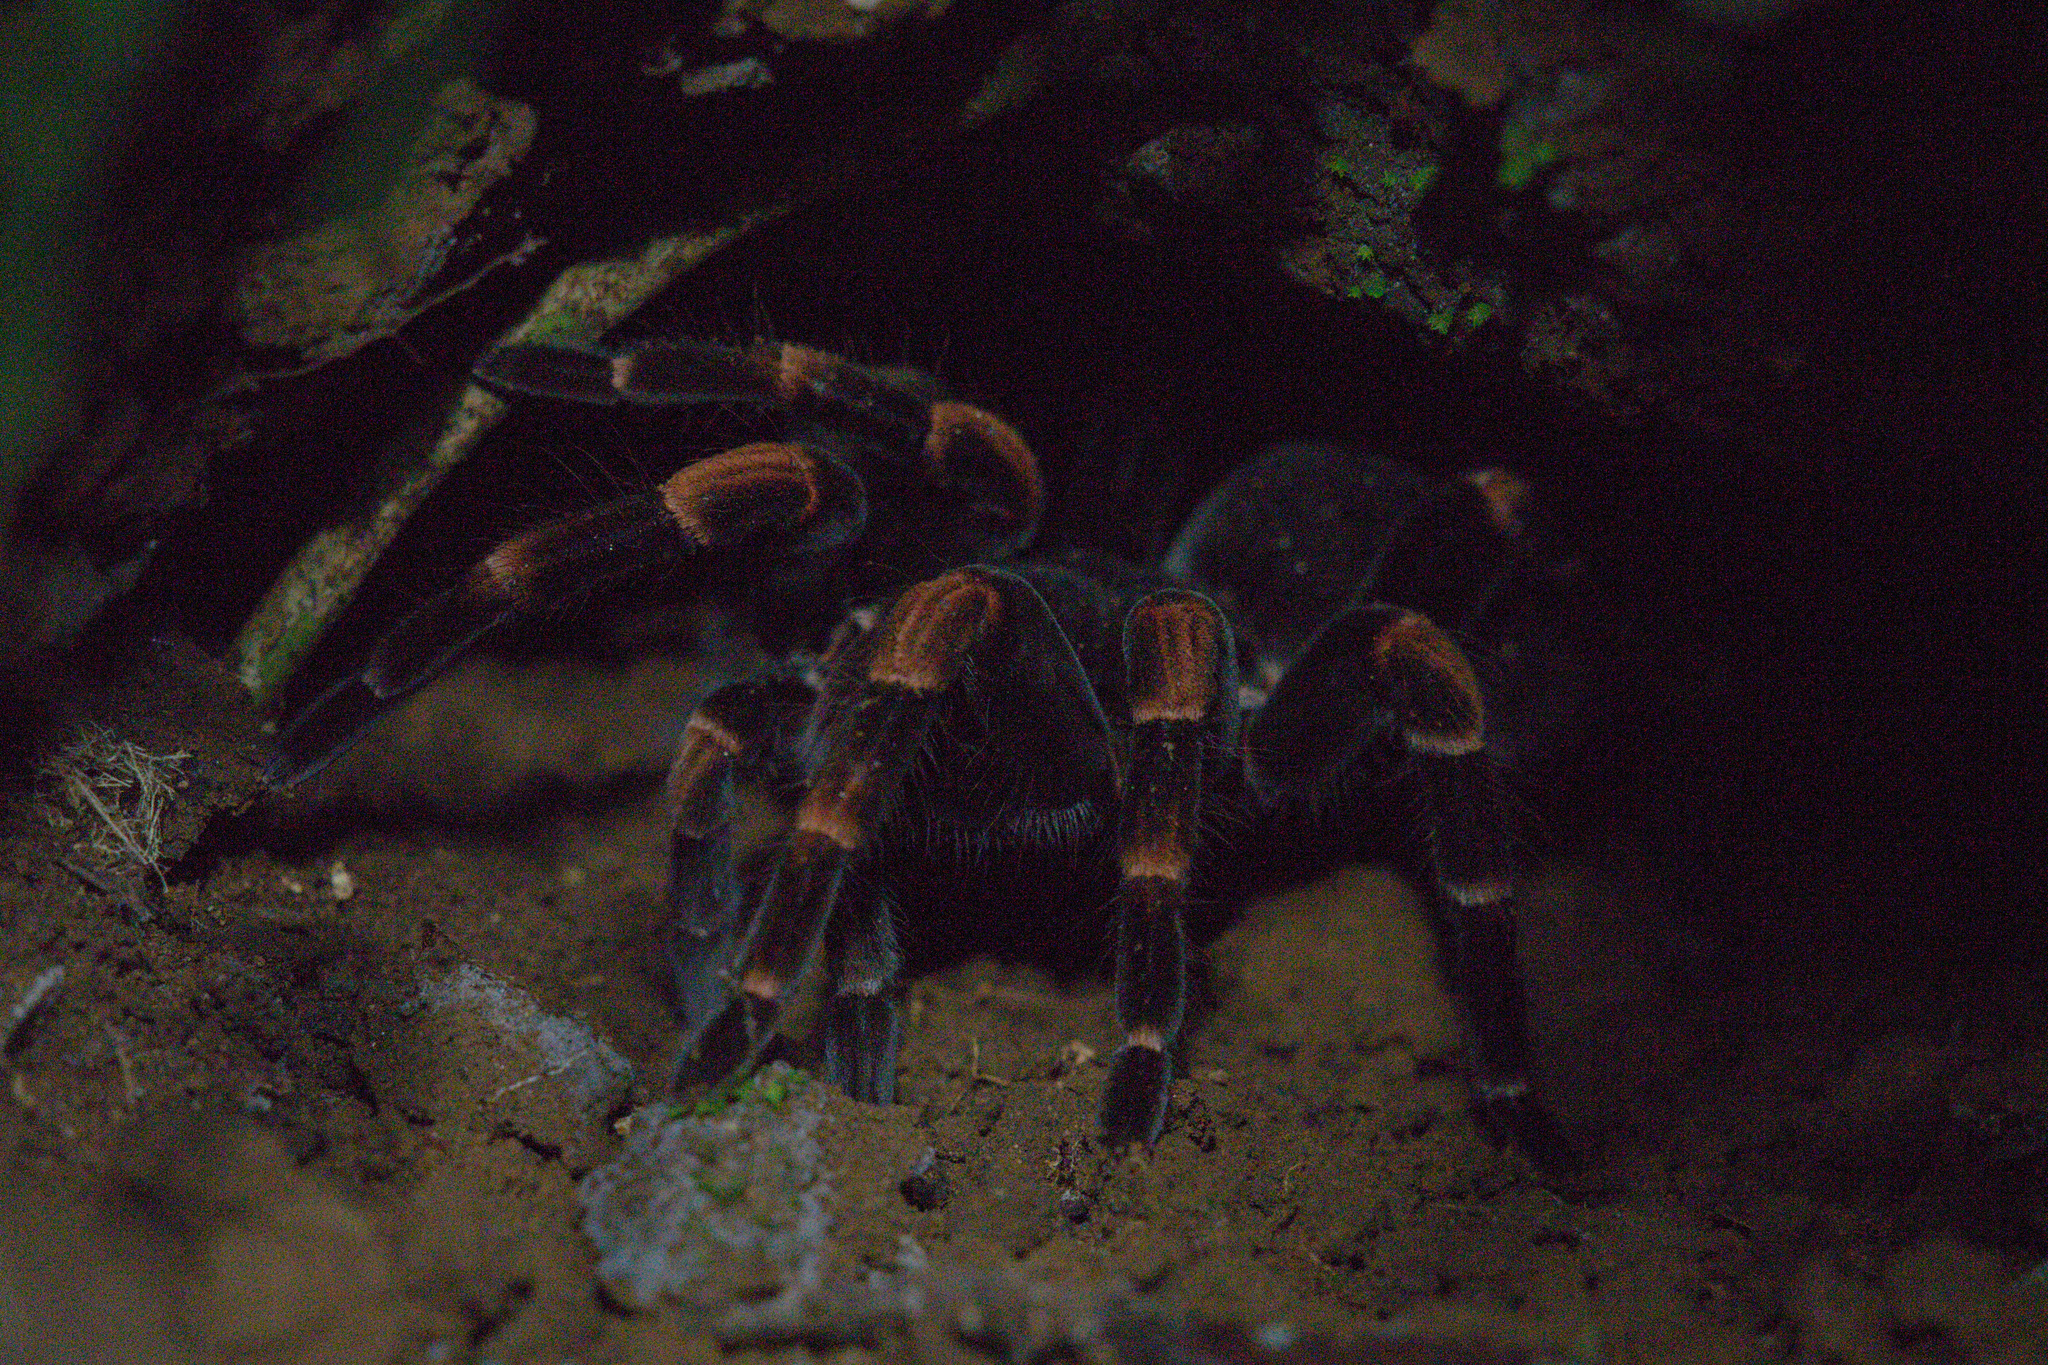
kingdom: Animalia
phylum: Arthropoda
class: Arachnida
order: Araneae
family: Theraphosidae
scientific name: Theraphosidae
